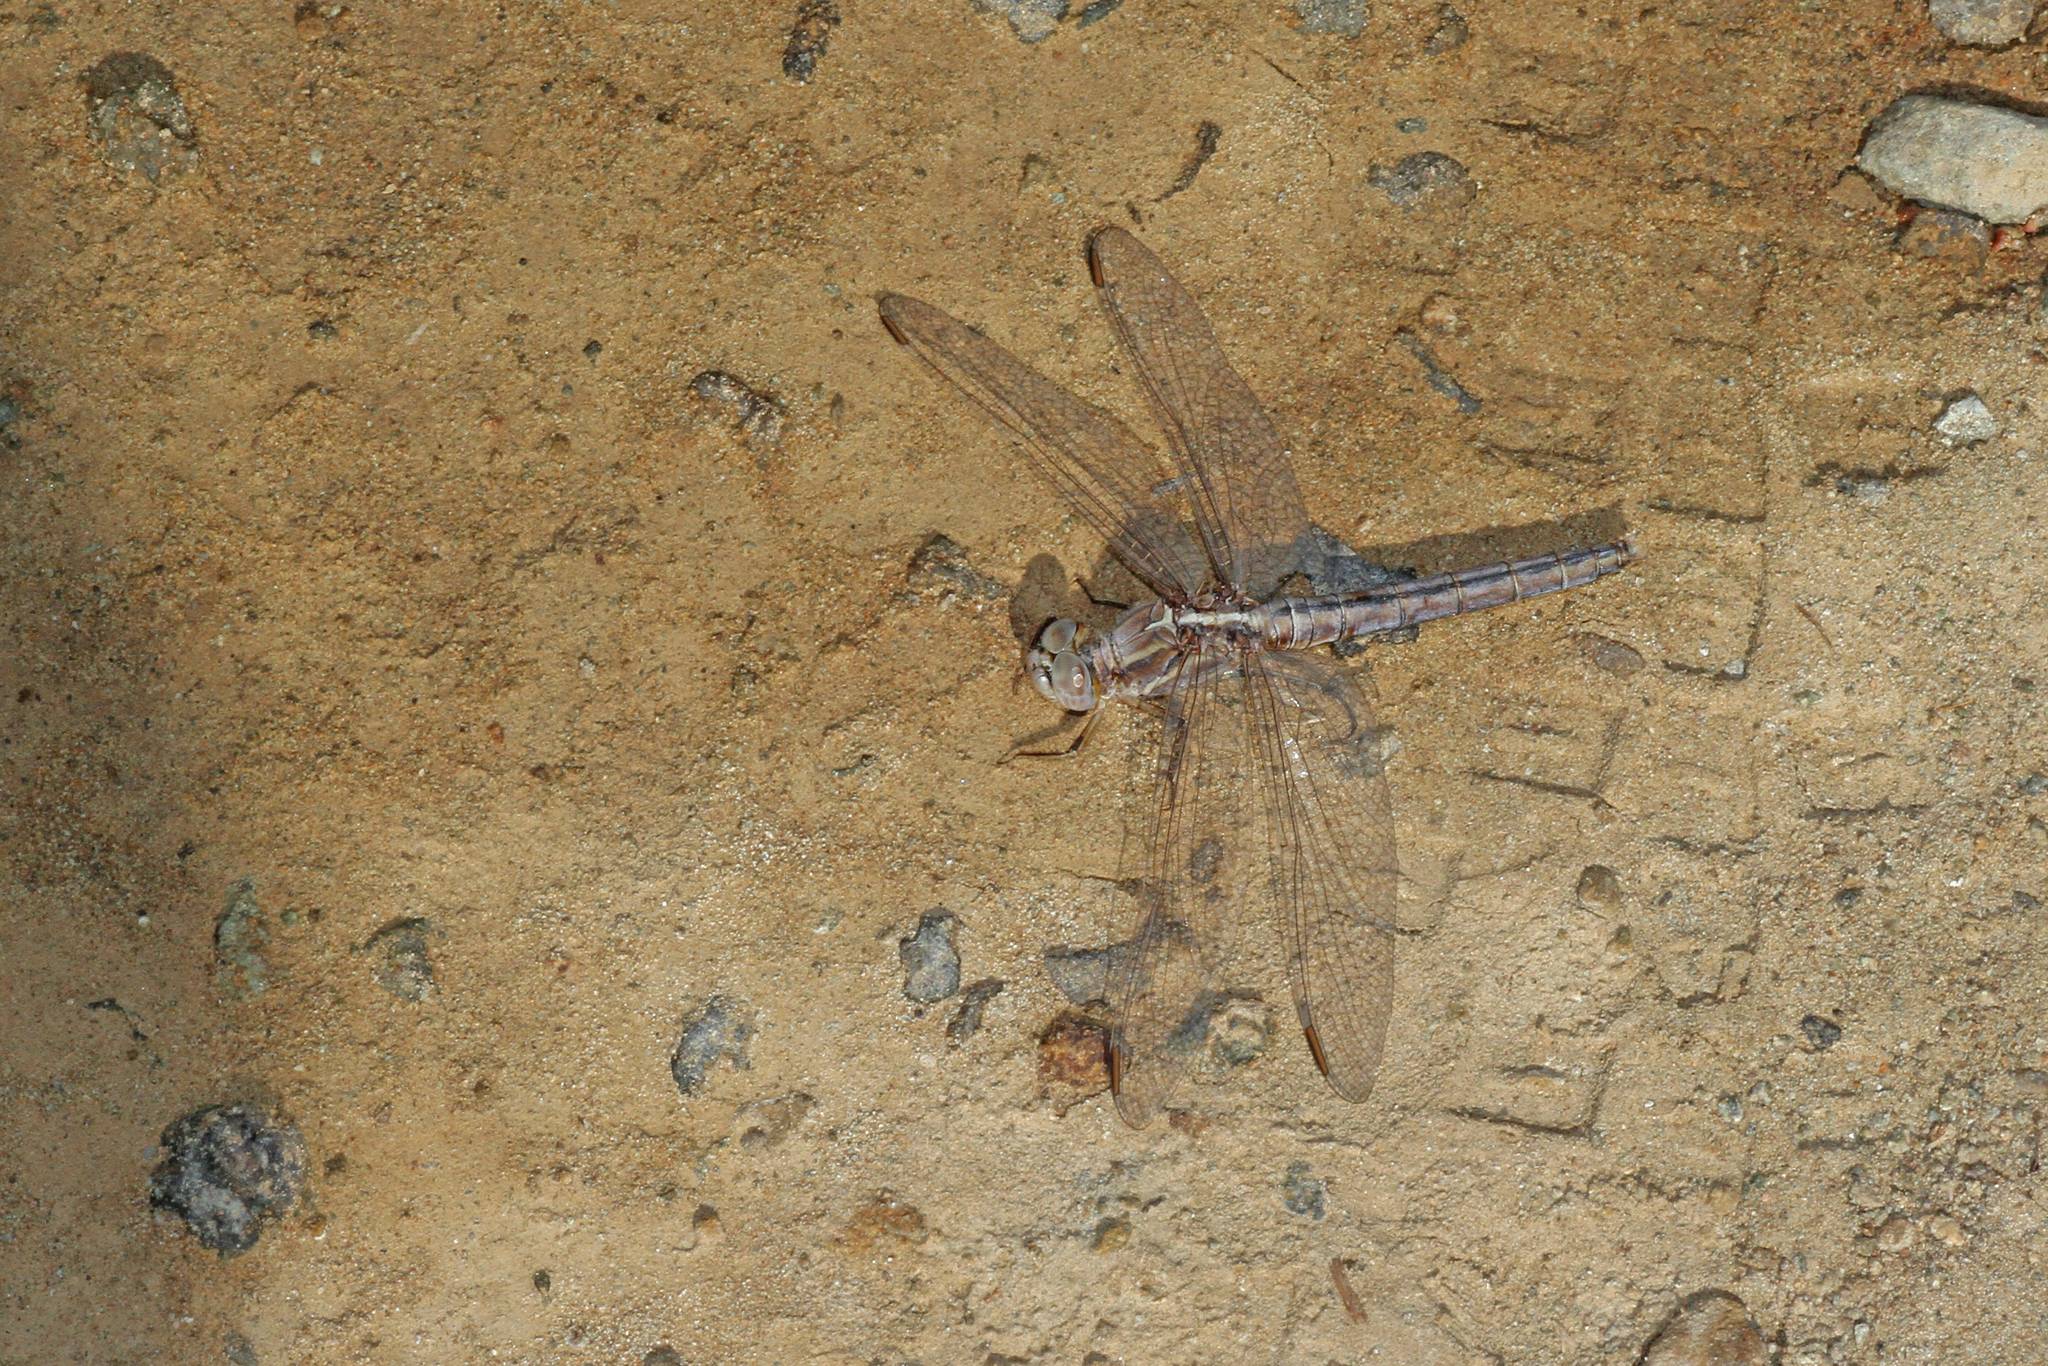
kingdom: Animalia
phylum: Arthropoda
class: Insecta
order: Odonata
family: Libellulidae
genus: Orthetrum
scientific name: Orthetrum taeniolatum
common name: Small skimmer
